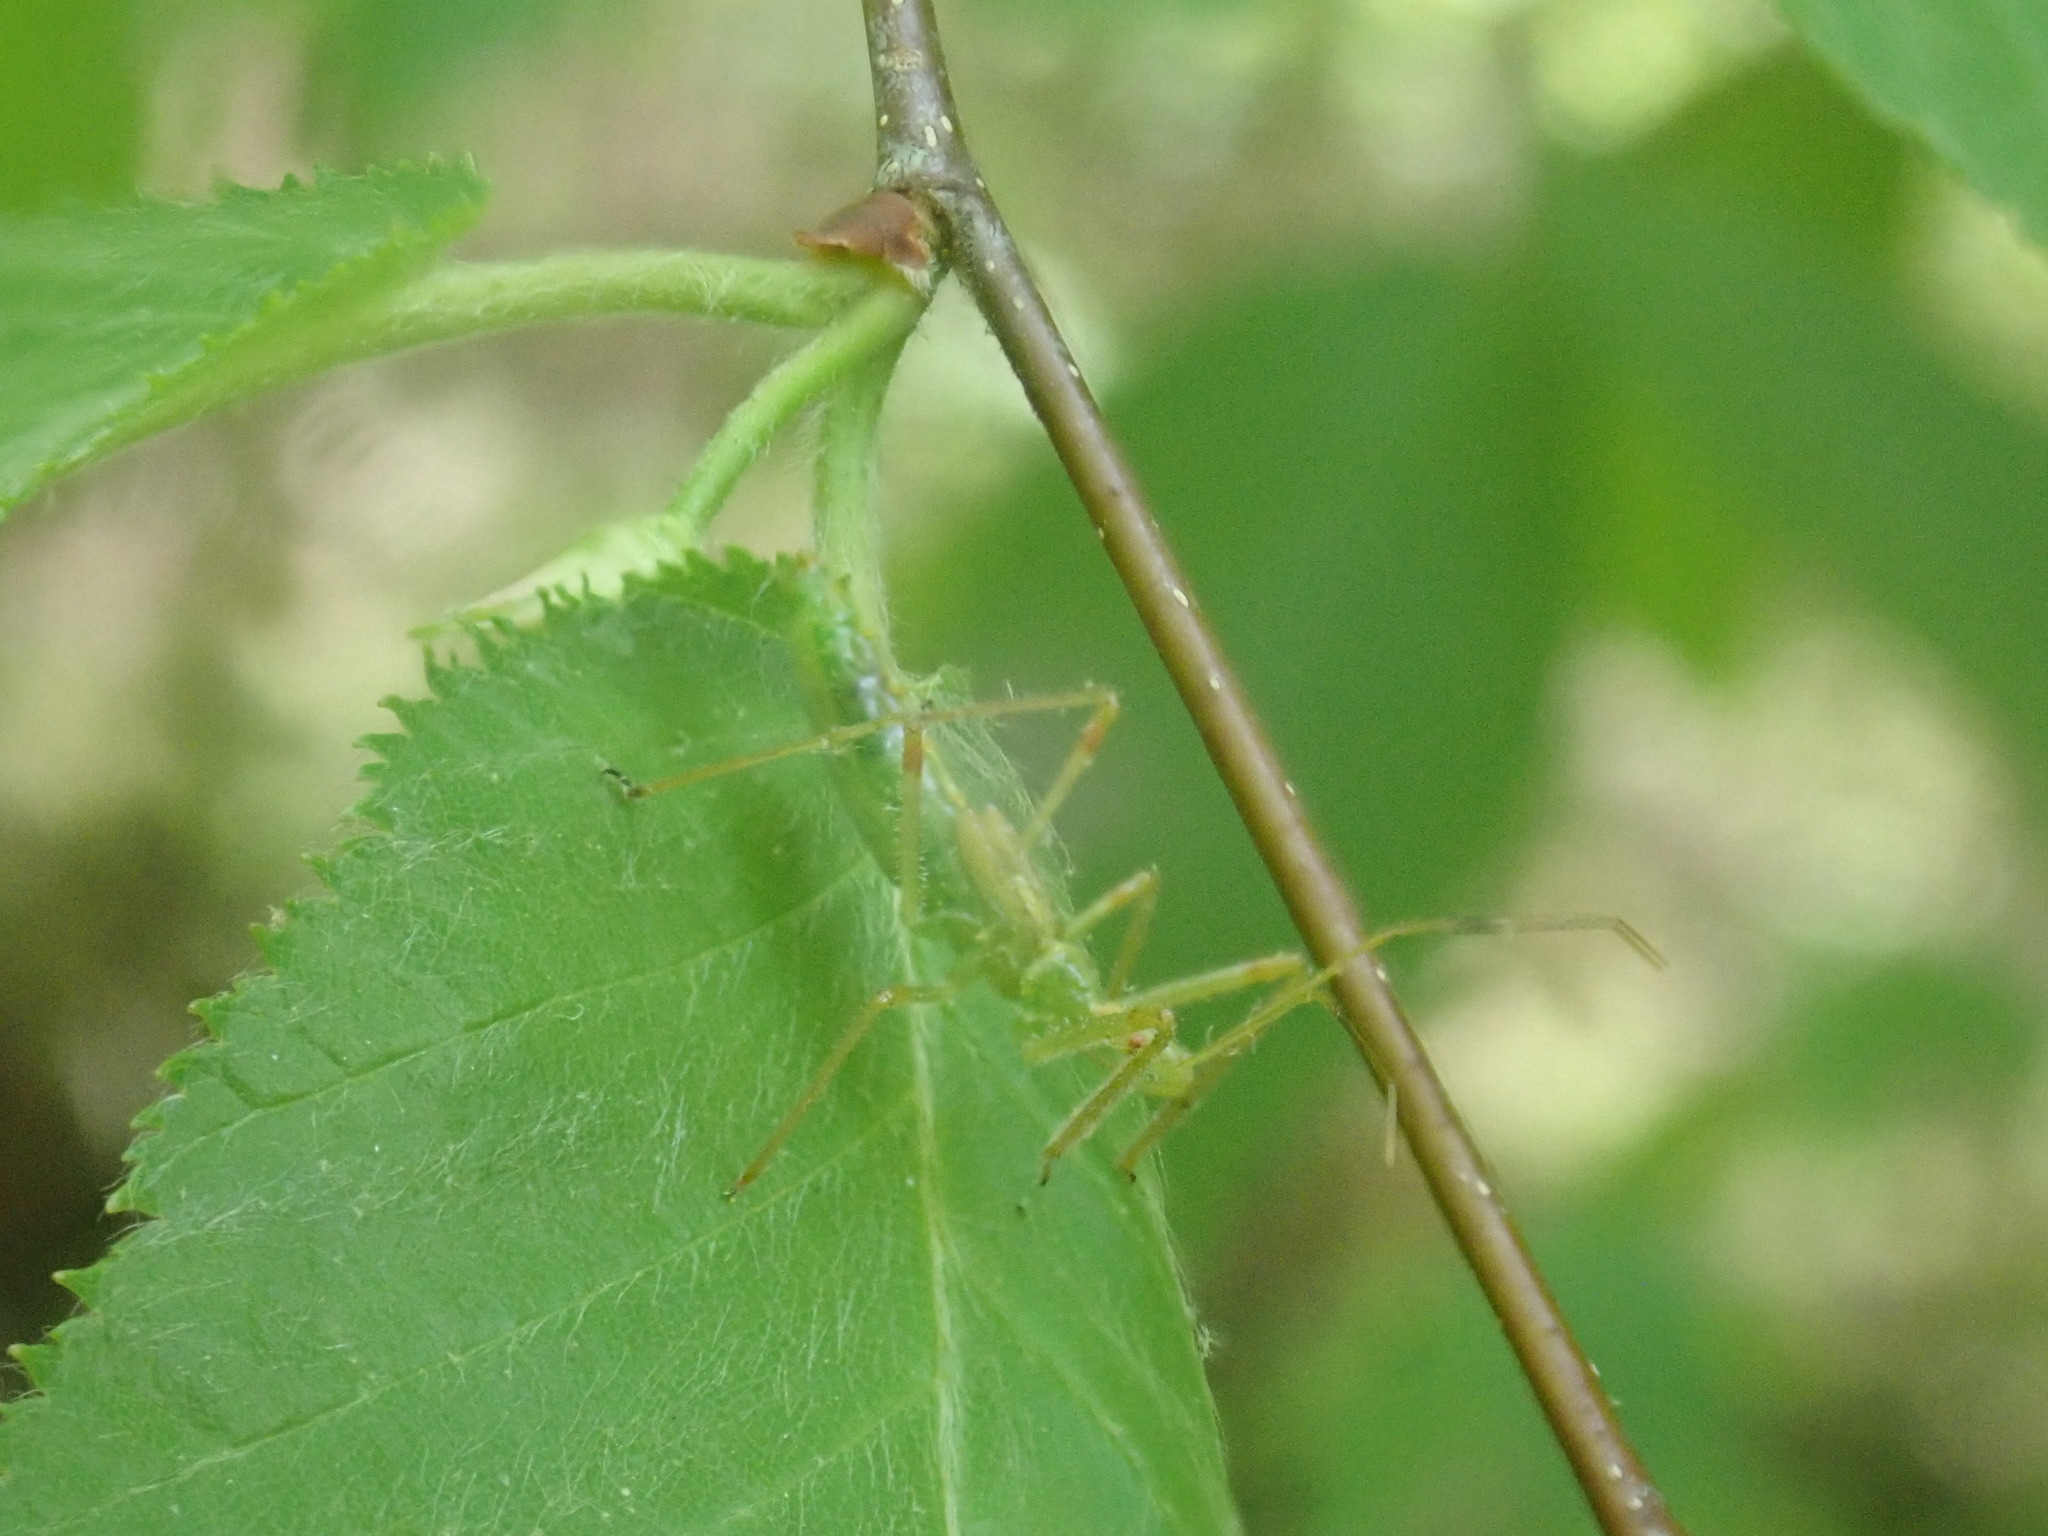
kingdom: Animalia
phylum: Arthropoda
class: Insecta
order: Hemiptera
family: Reduviidae
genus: Zelus
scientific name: Zelus luridus
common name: Pale green assassin bug
